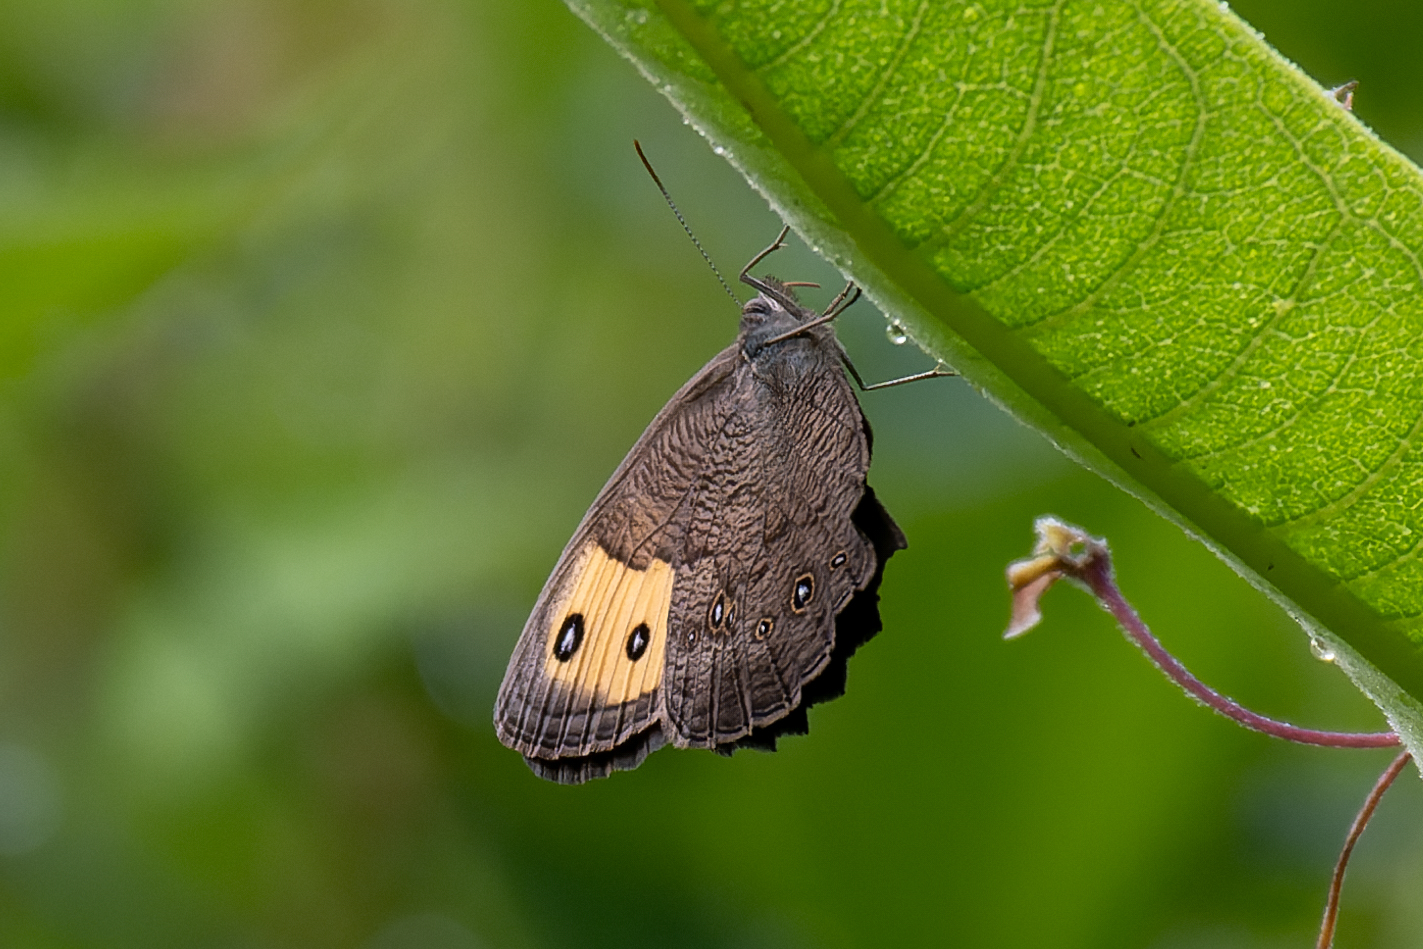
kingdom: Animalia
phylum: Arthropoda
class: Insecta
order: Lepidoptera
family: Nymphalidae
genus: Cercyonis
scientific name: Cercyonis pegala
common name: Common wood-nymph
